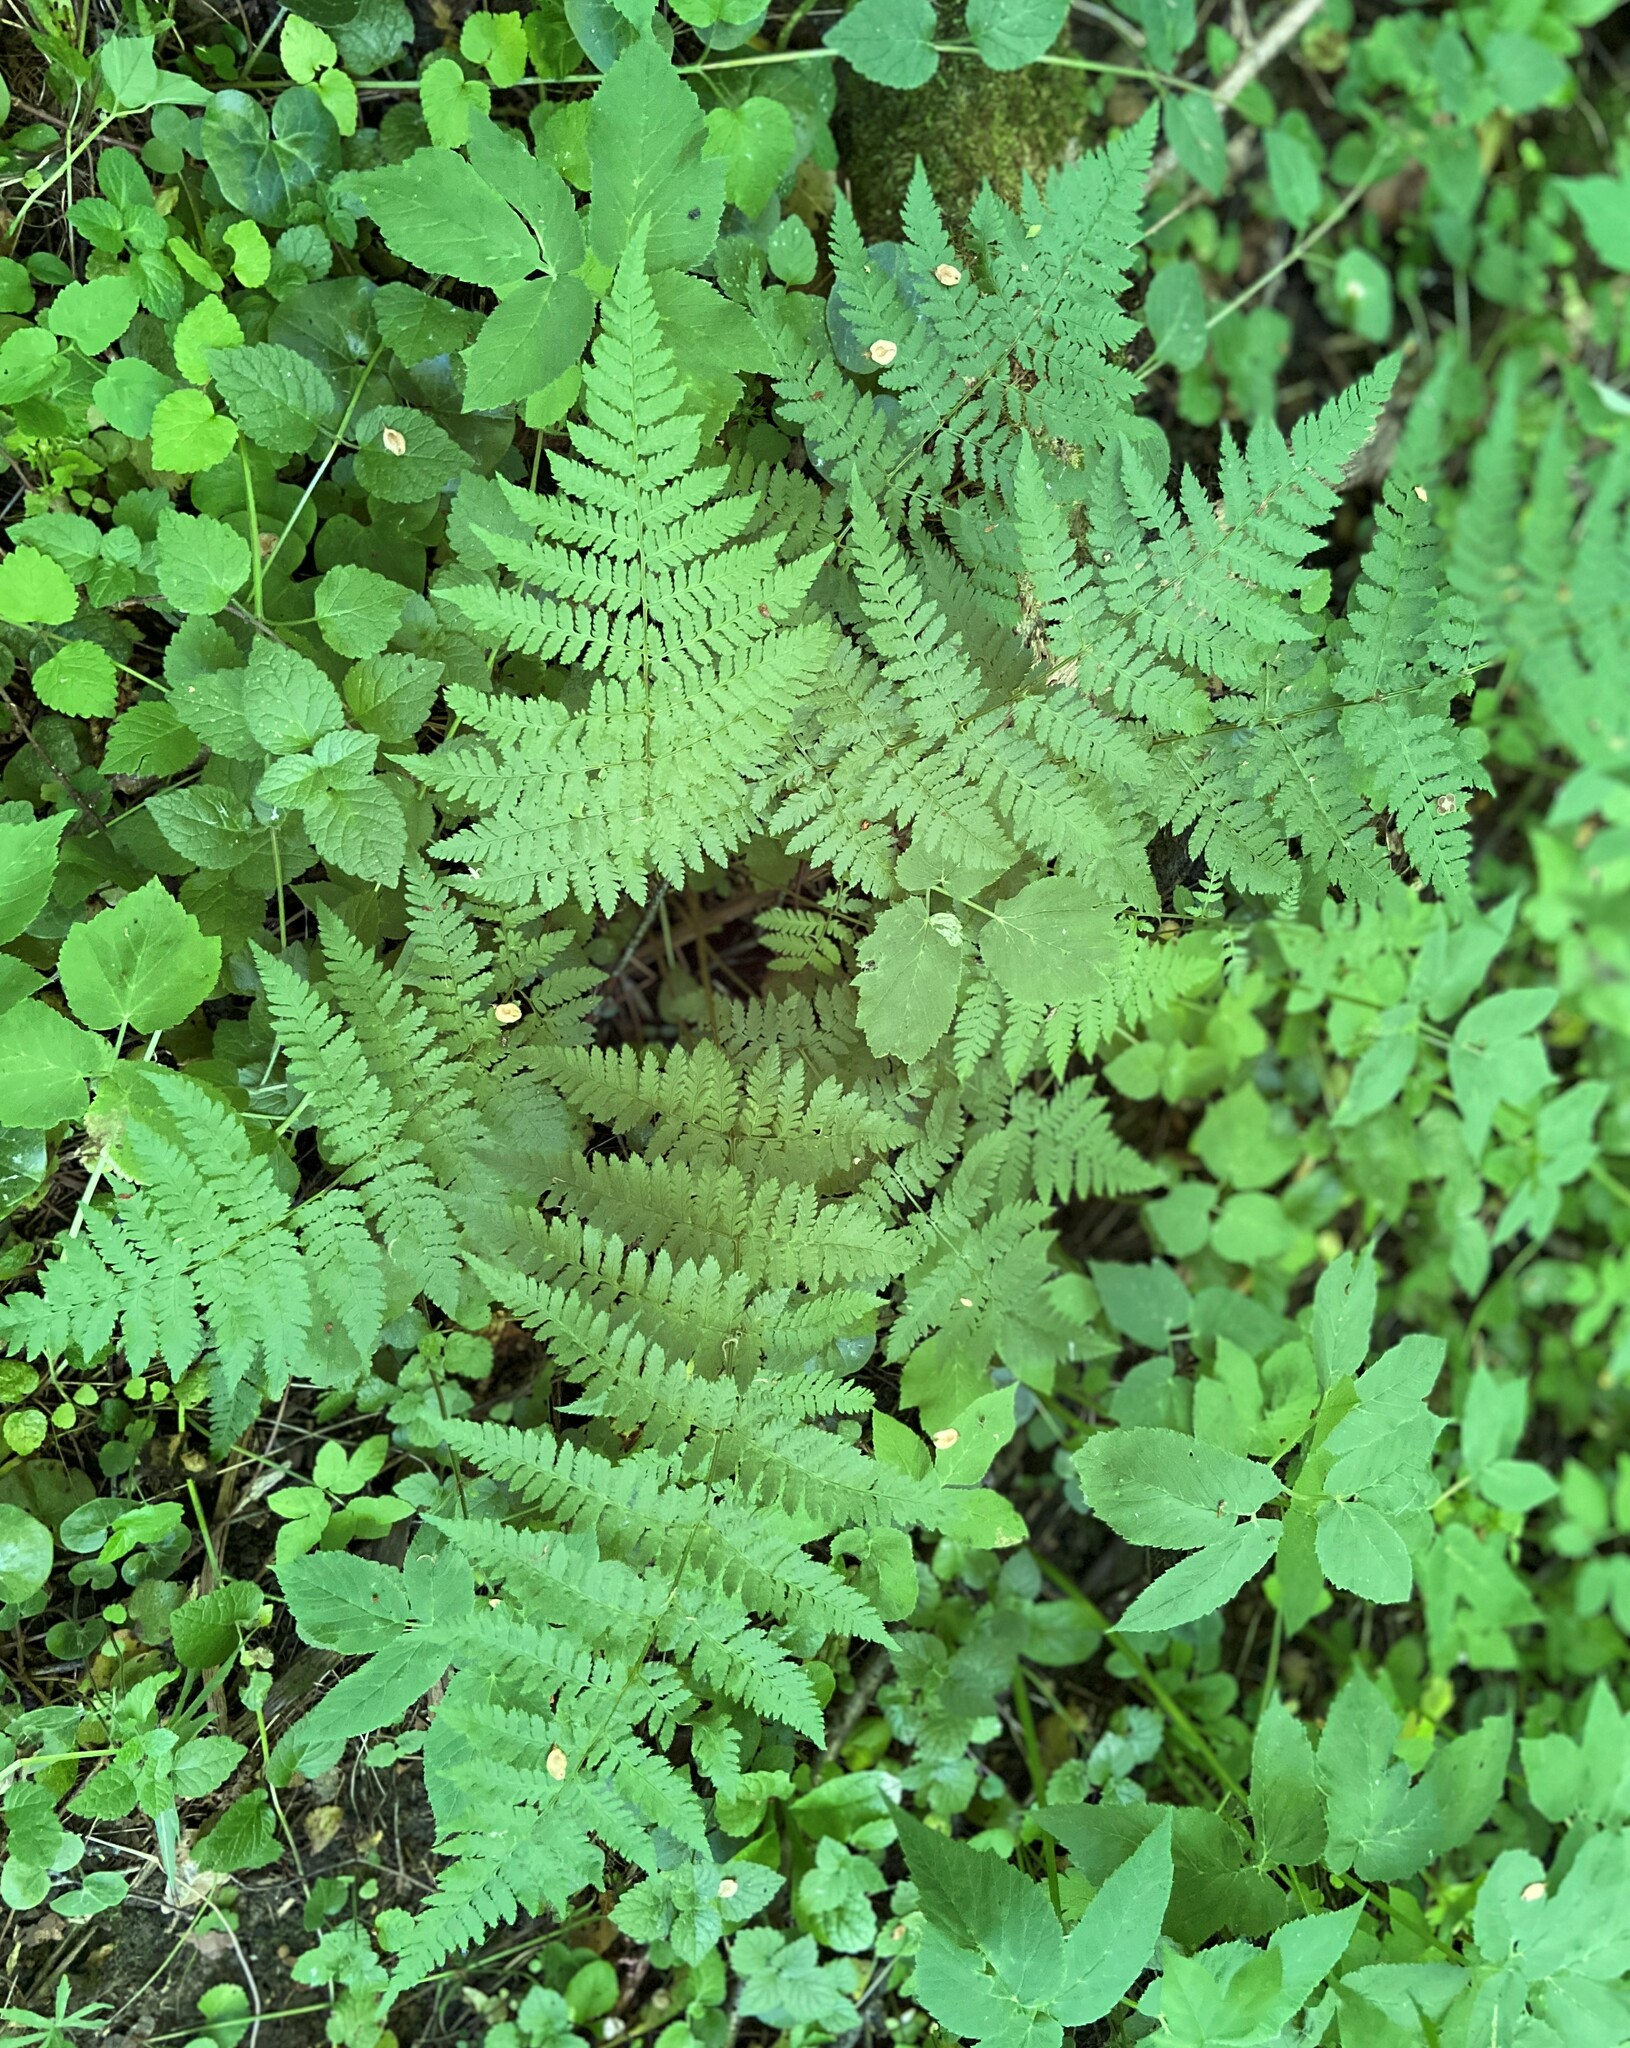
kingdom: Plantae
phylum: Tracheophyta
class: Polypodiopsida
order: Polypodiales
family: Dryopteridaceae
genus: Dryopteris
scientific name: Dryopteris carthusiana
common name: Narrow buckler-fern
